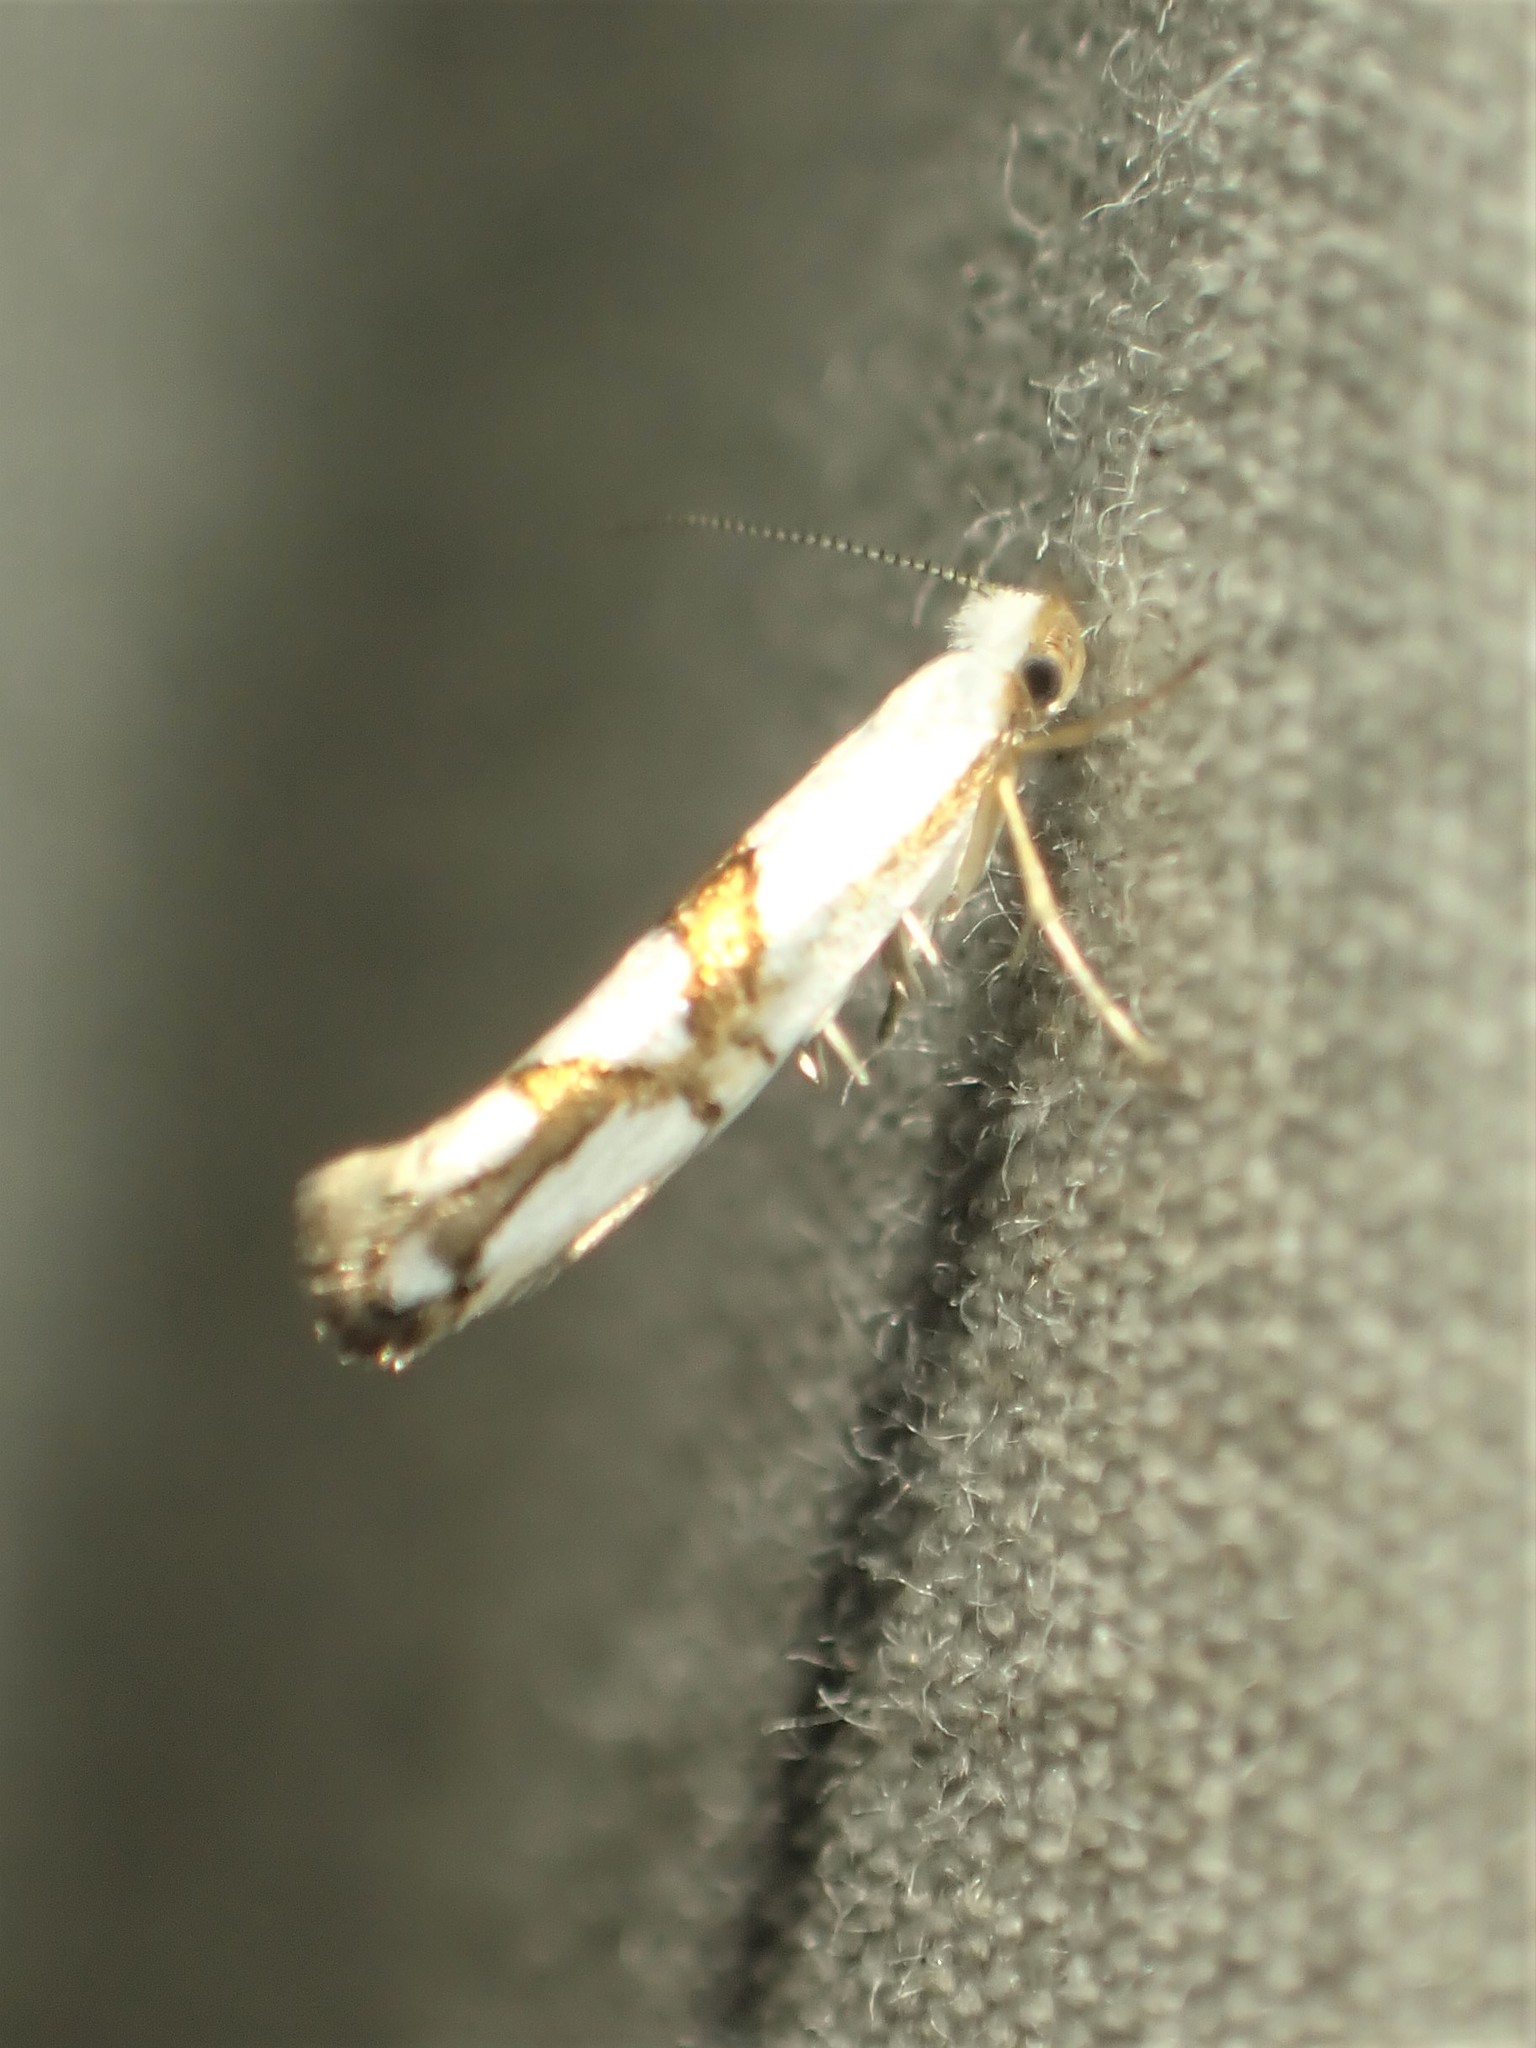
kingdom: Animalia
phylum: Arthropoda
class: Insecta
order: Lepidoptera
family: Argyresthiidae
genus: Argyresthia
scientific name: Argyresthia oreasella
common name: Cherry shoot borer moth
